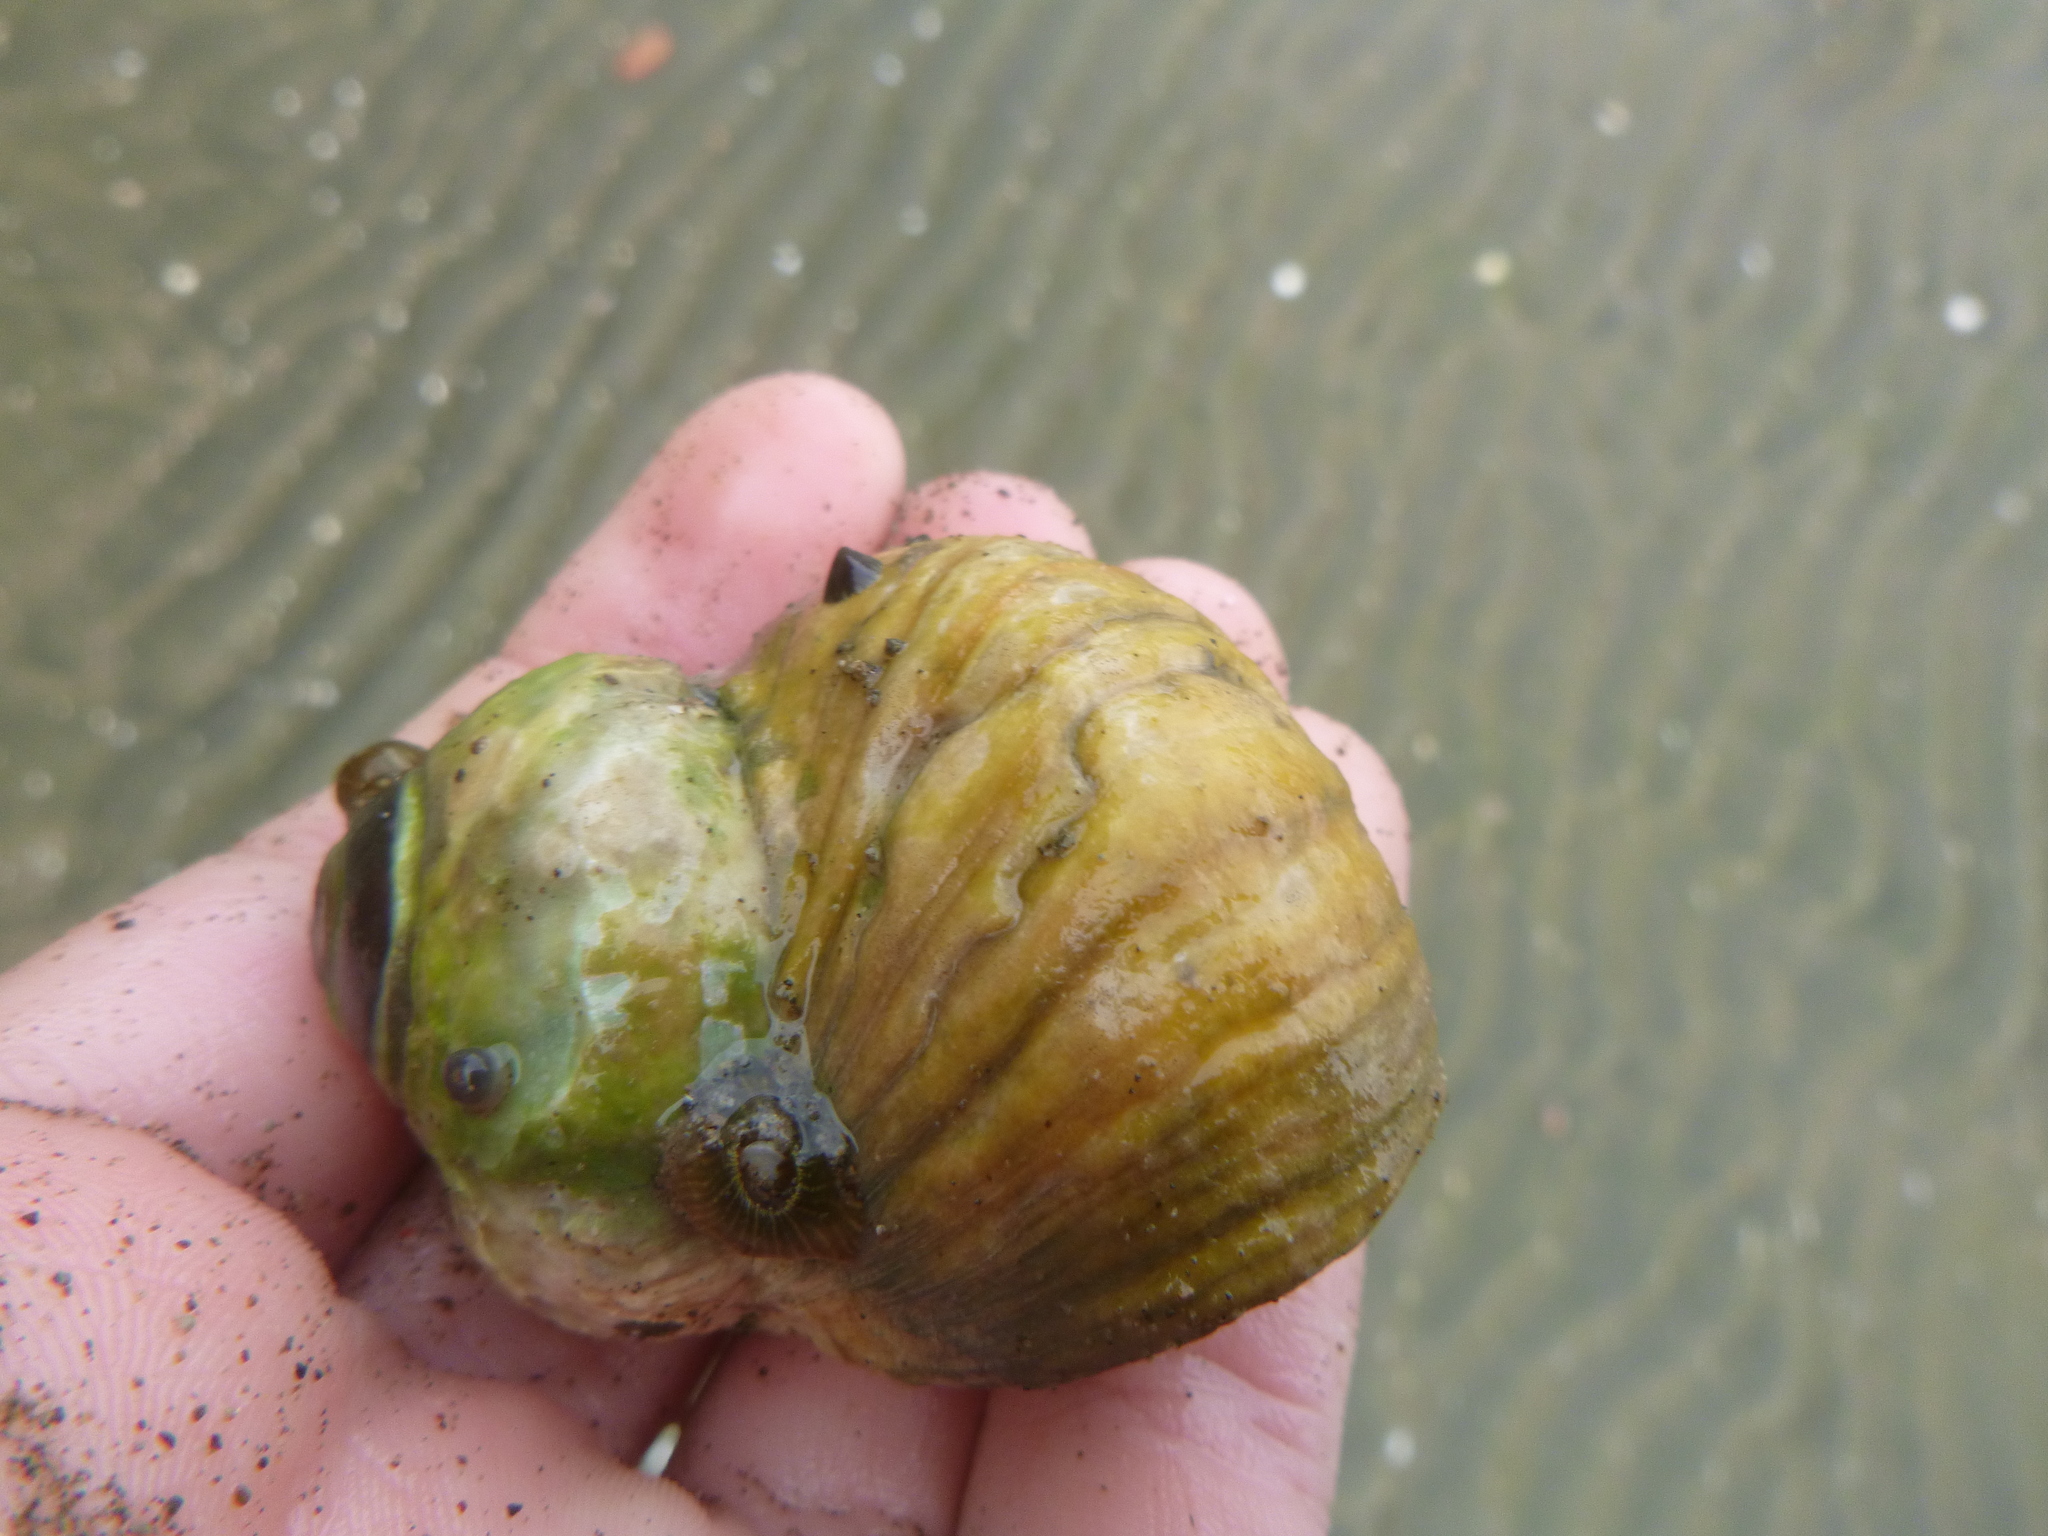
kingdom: Animalia
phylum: Mollusca
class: Gastropoda
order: Trochida
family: Turbinidae
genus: Lunella
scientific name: Lunella smaragda
